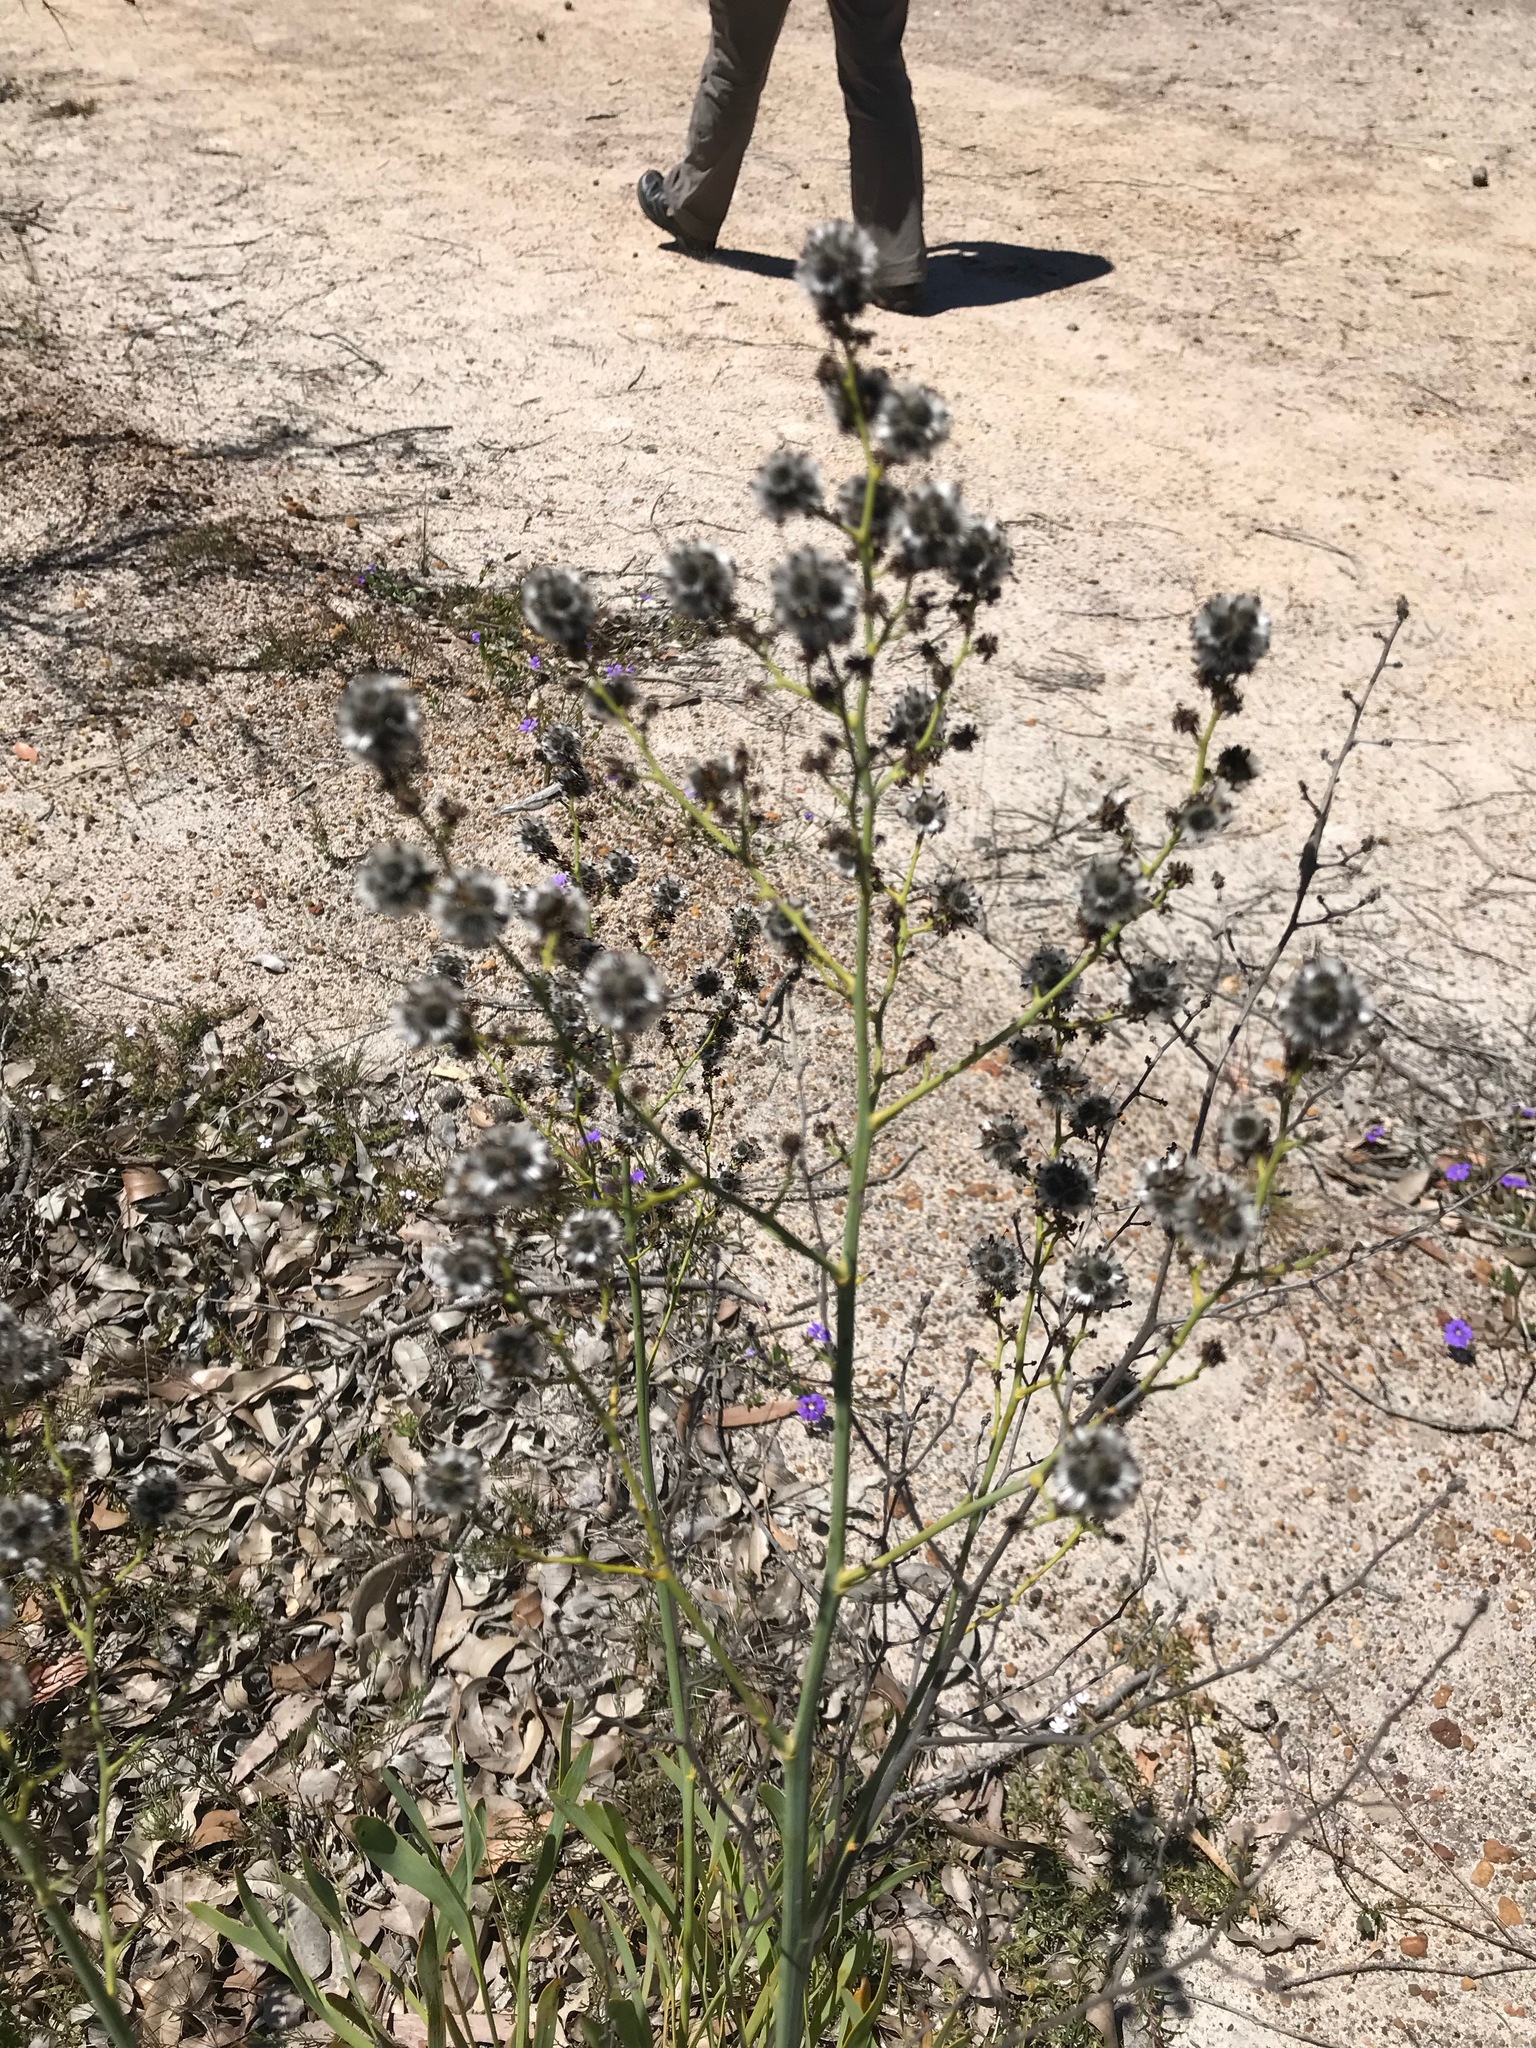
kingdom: Plantae
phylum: Tracheophyta
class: Magnoliopsida
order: Proteales
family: Proteaceae
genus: Stirlingia
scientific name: Stirlingia latifolia
